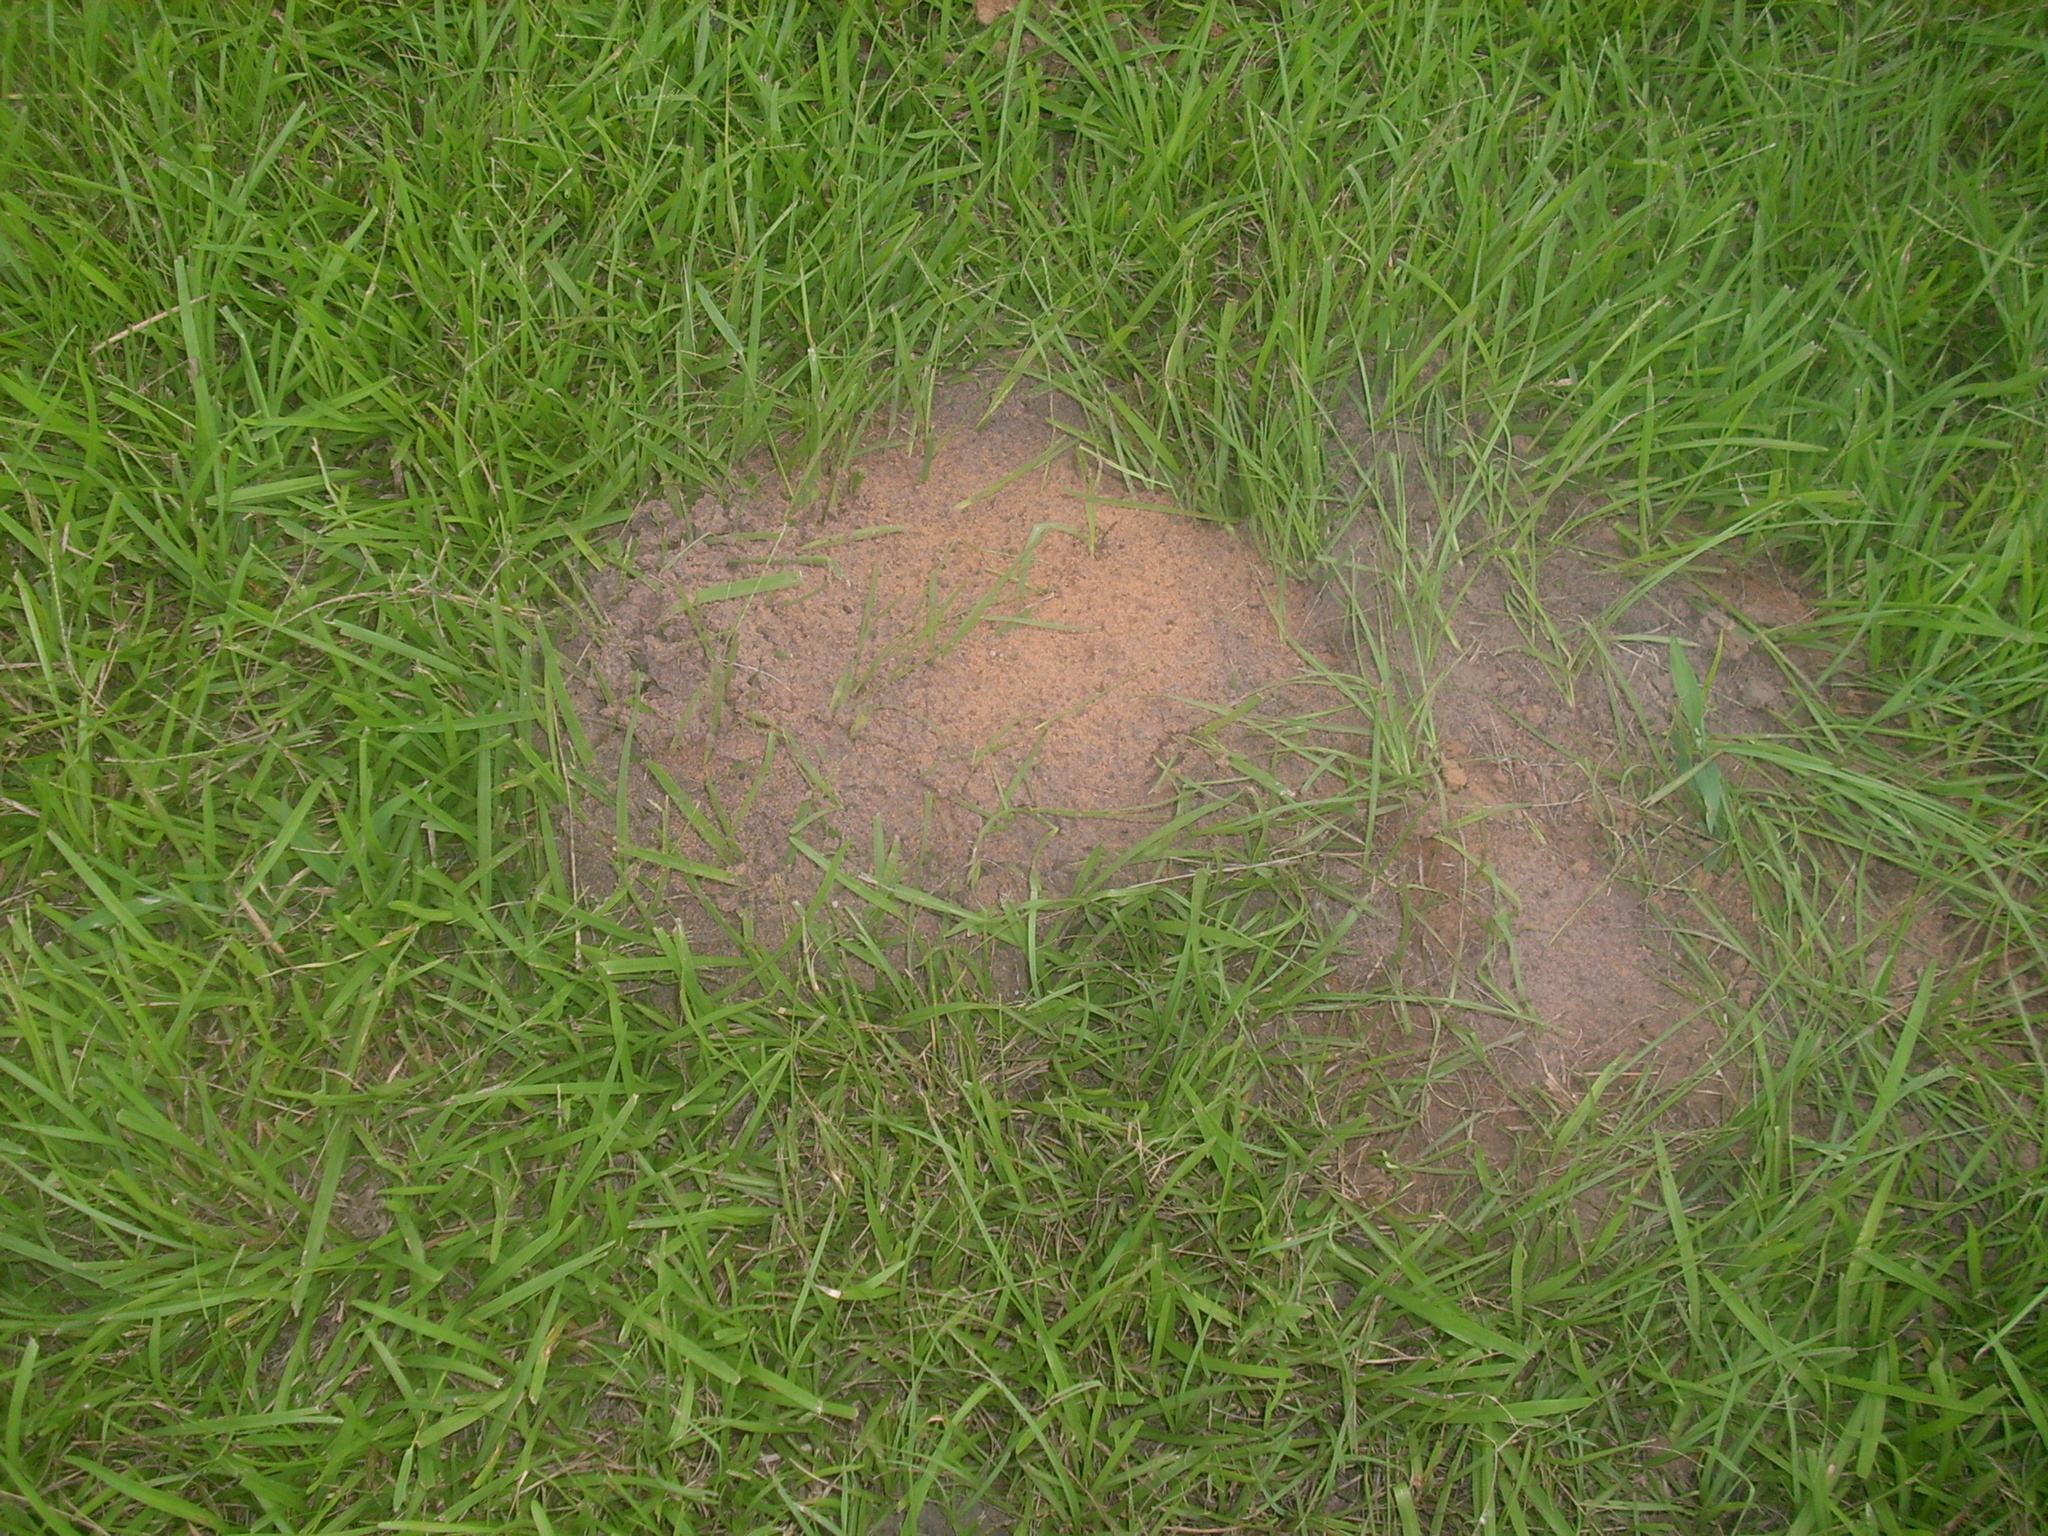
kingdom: Animalia
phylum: Arthropoda
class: Insecta
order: Hymenoptera
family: Formicidae
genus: Solenopsis
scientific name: Solenopsis invicta
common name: Red imported fire ant
